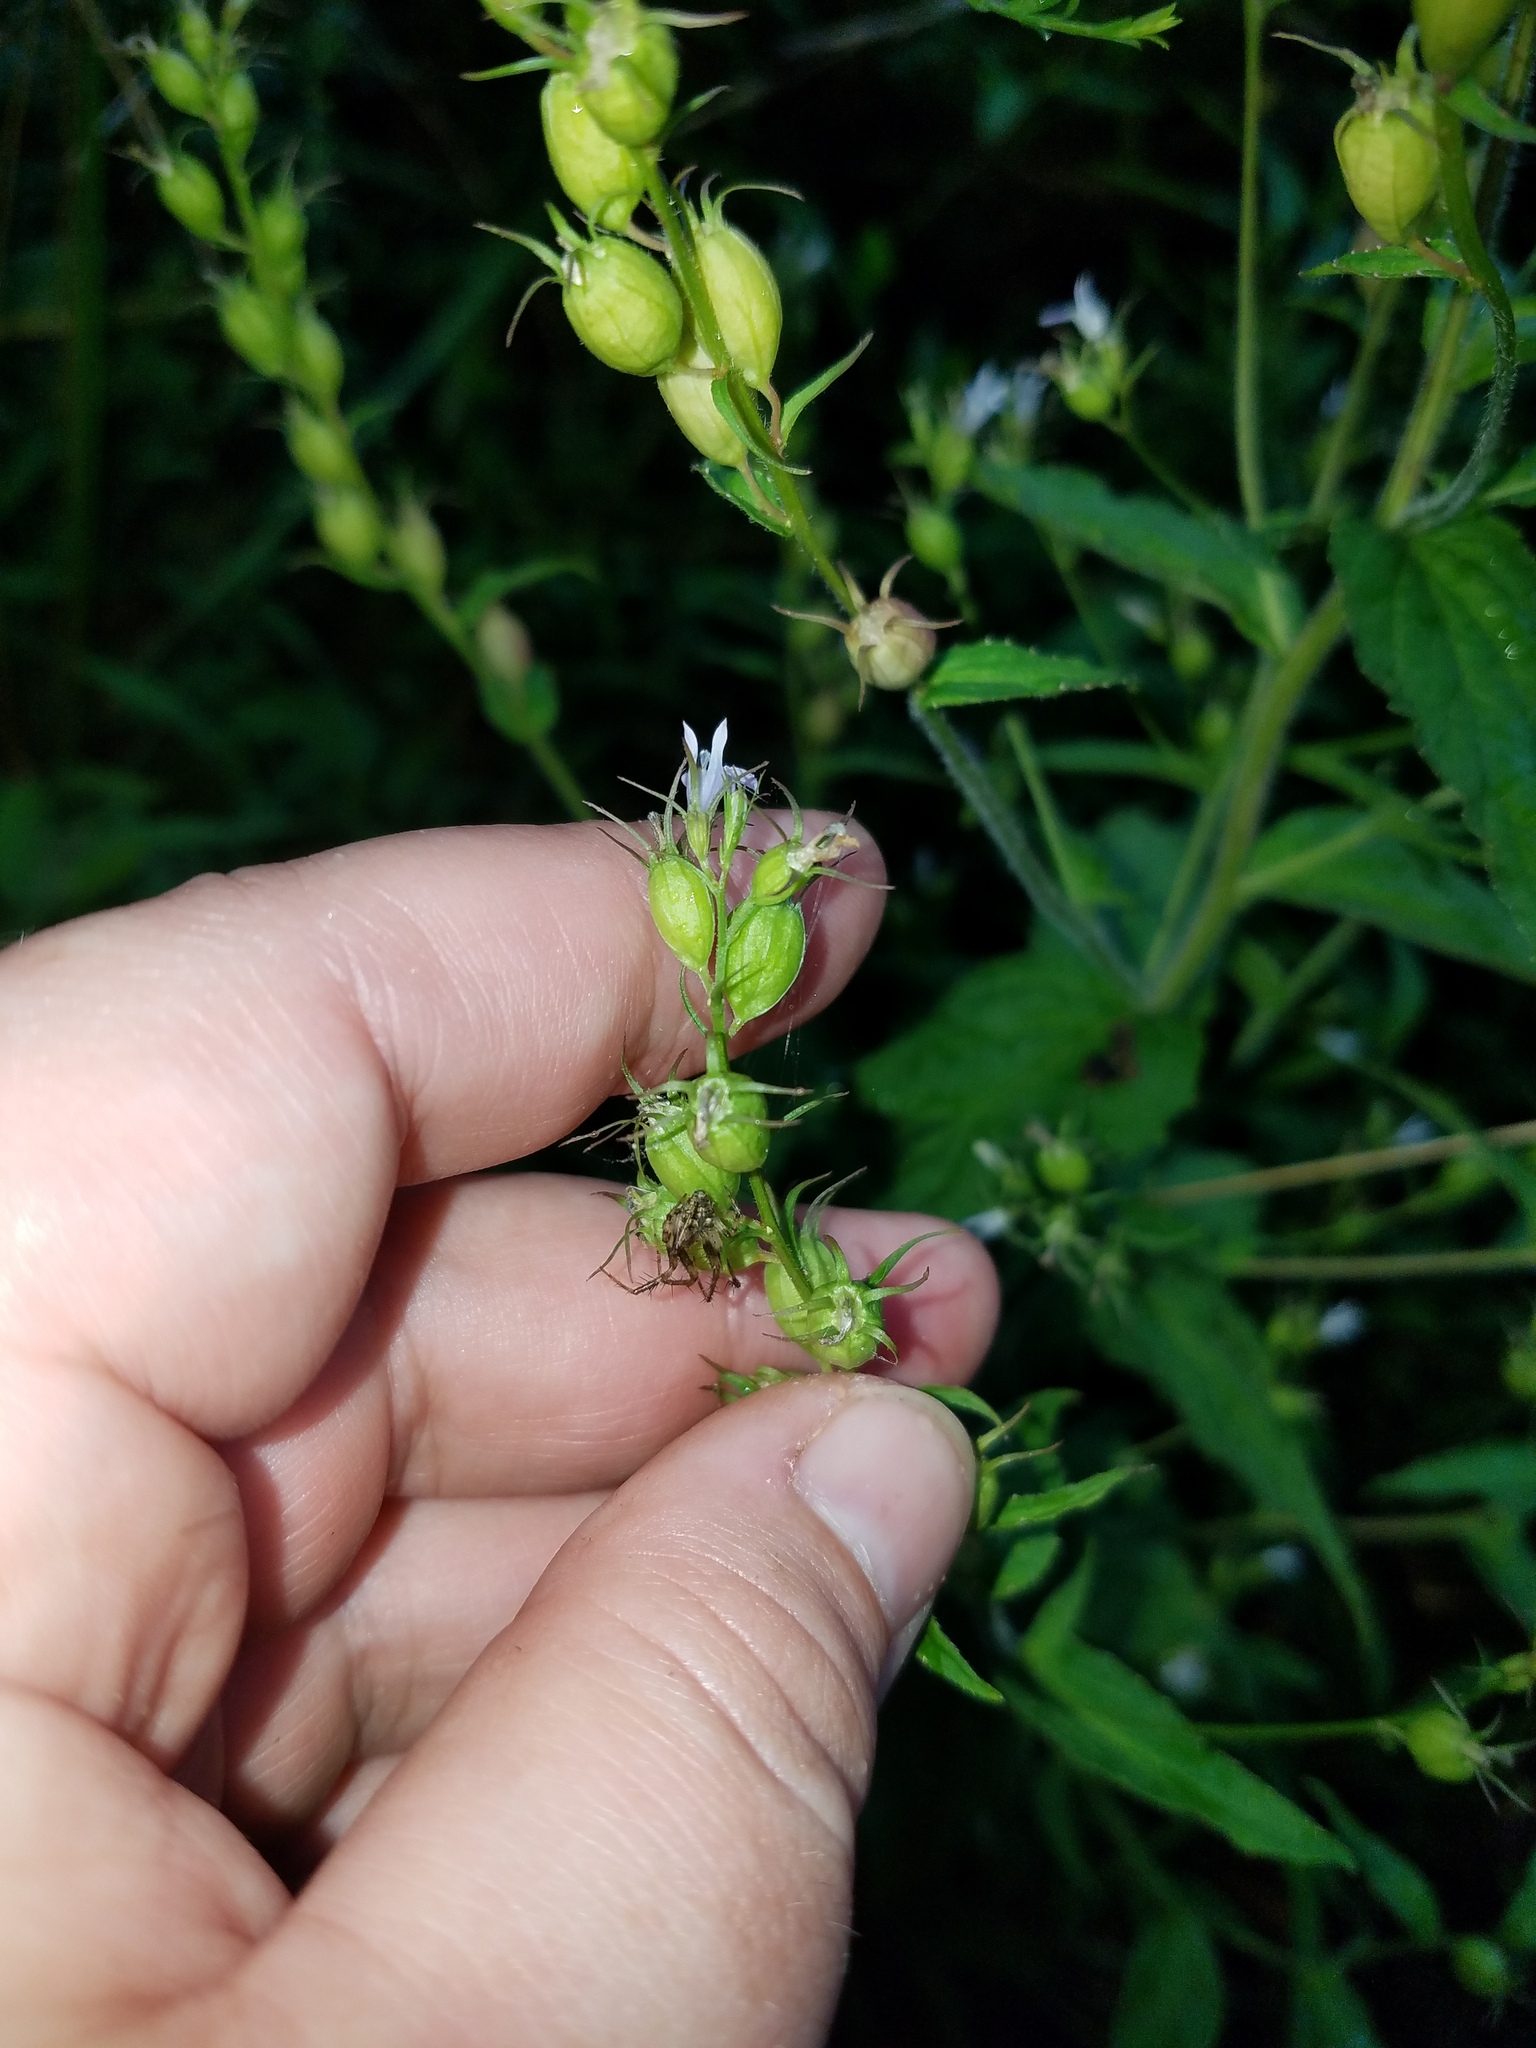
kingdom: Plantae
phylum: Tracheophyta
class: Magnoliopsida
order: Asterales
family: Campanulaceae
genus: Lobelia
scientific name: Lobelia inflata
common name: Indian tobacco
